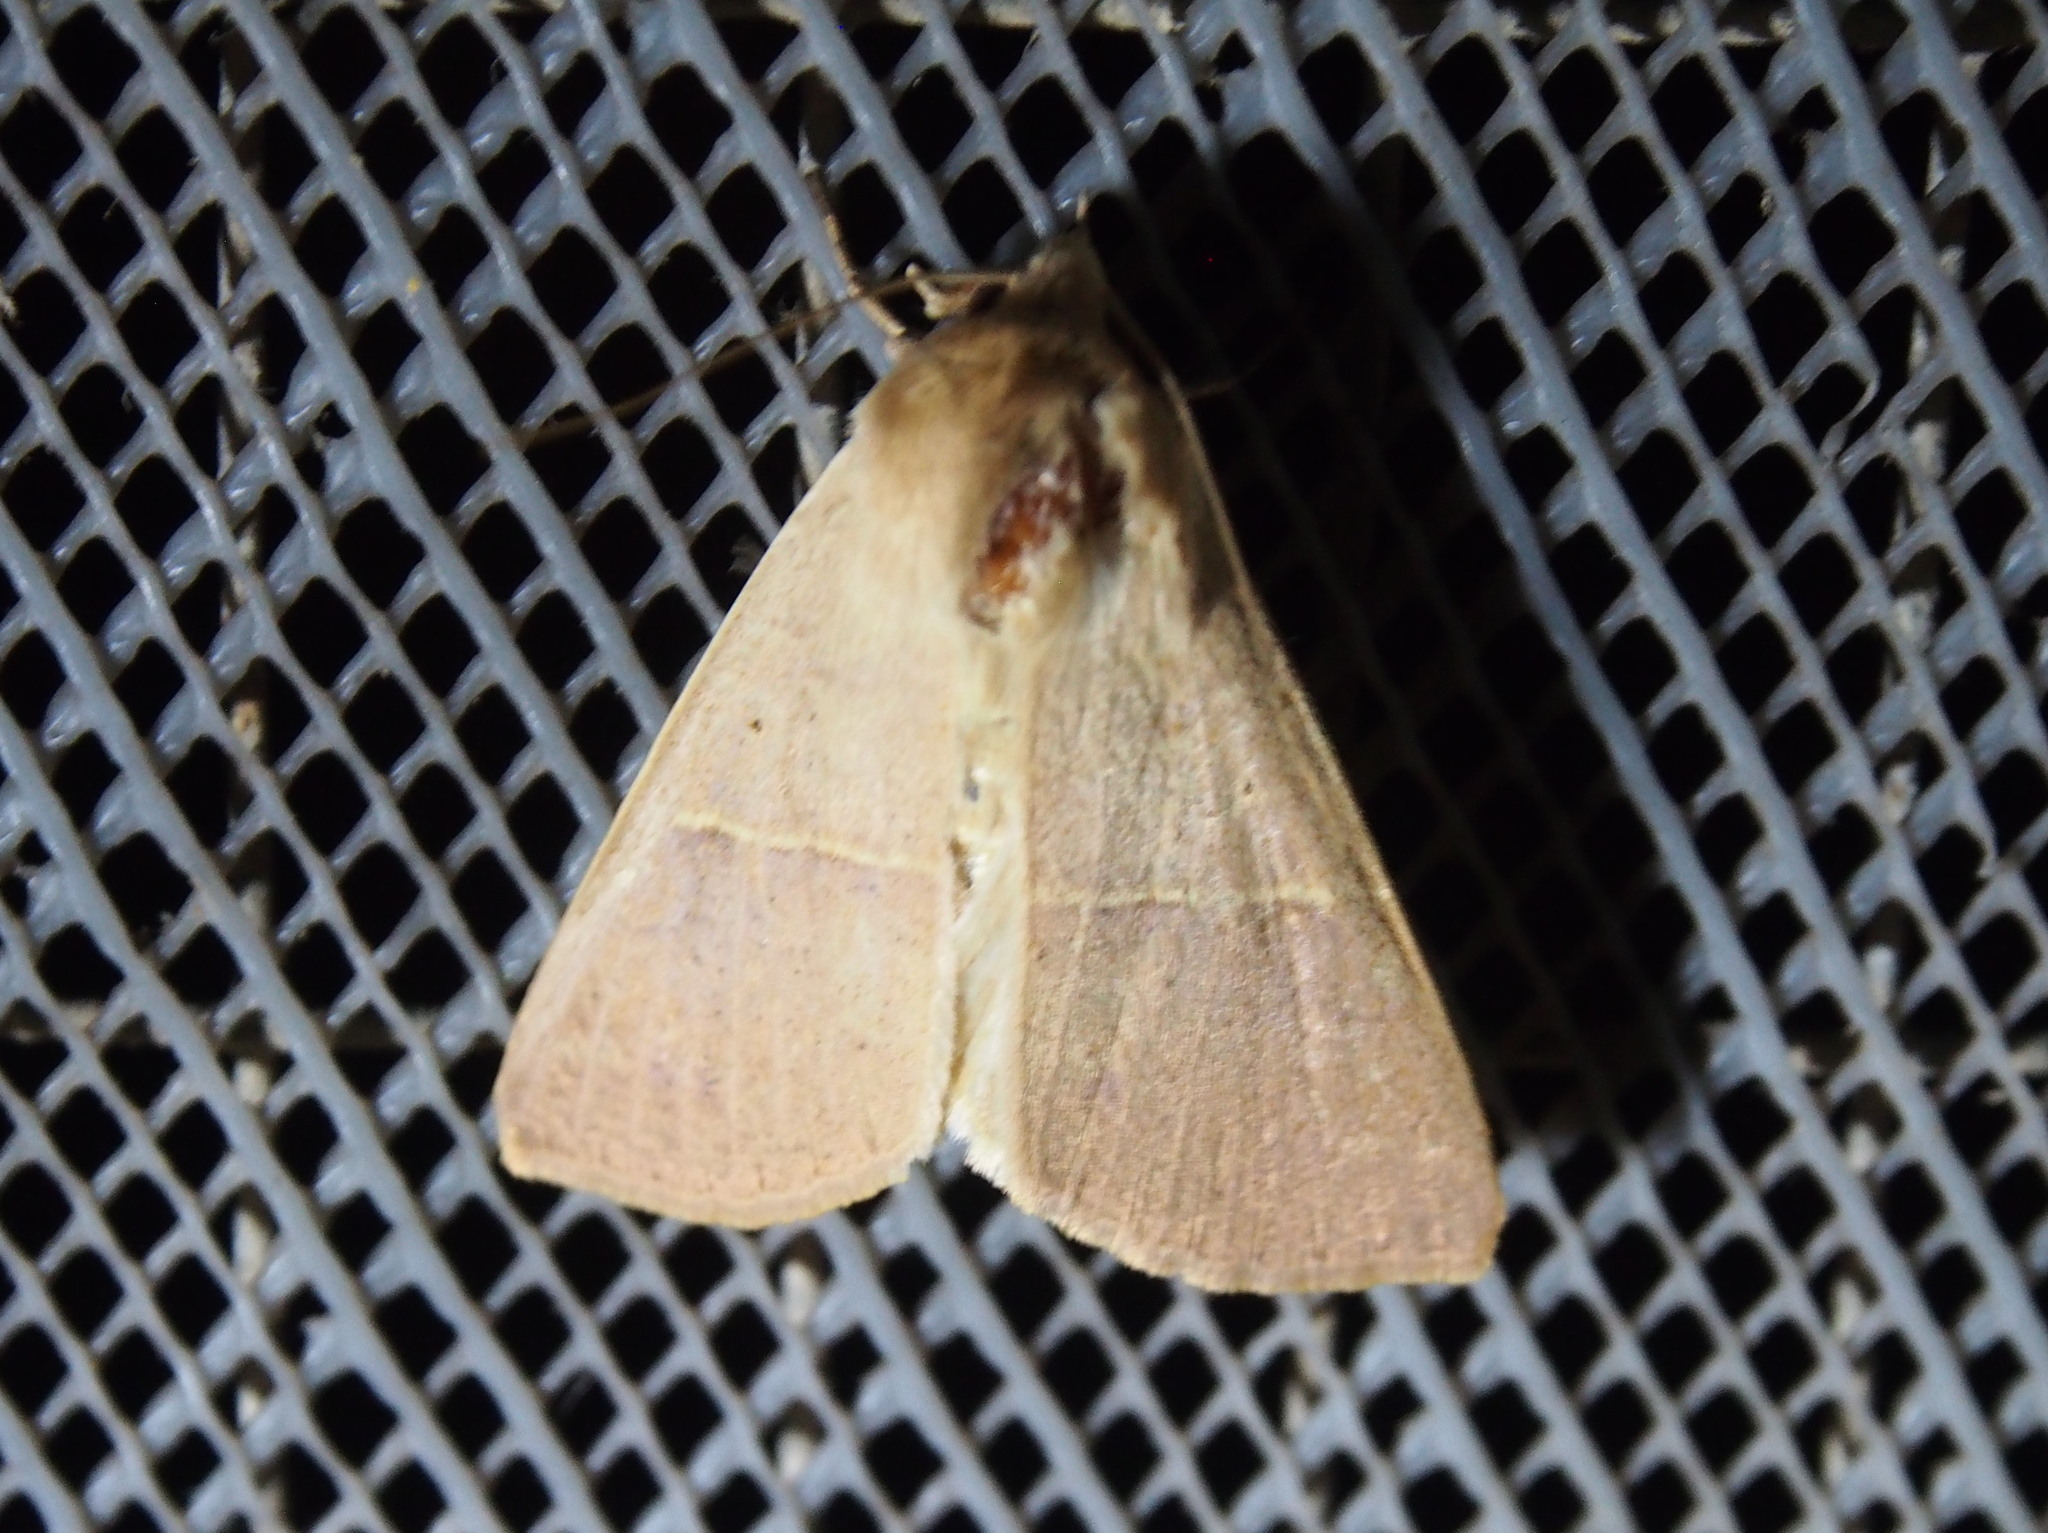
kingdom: Animalia
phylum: Arthropoda
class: Insecta
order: Lepidoptera
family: Erebidae
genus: Obrima
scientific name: Obrima pyraloides
